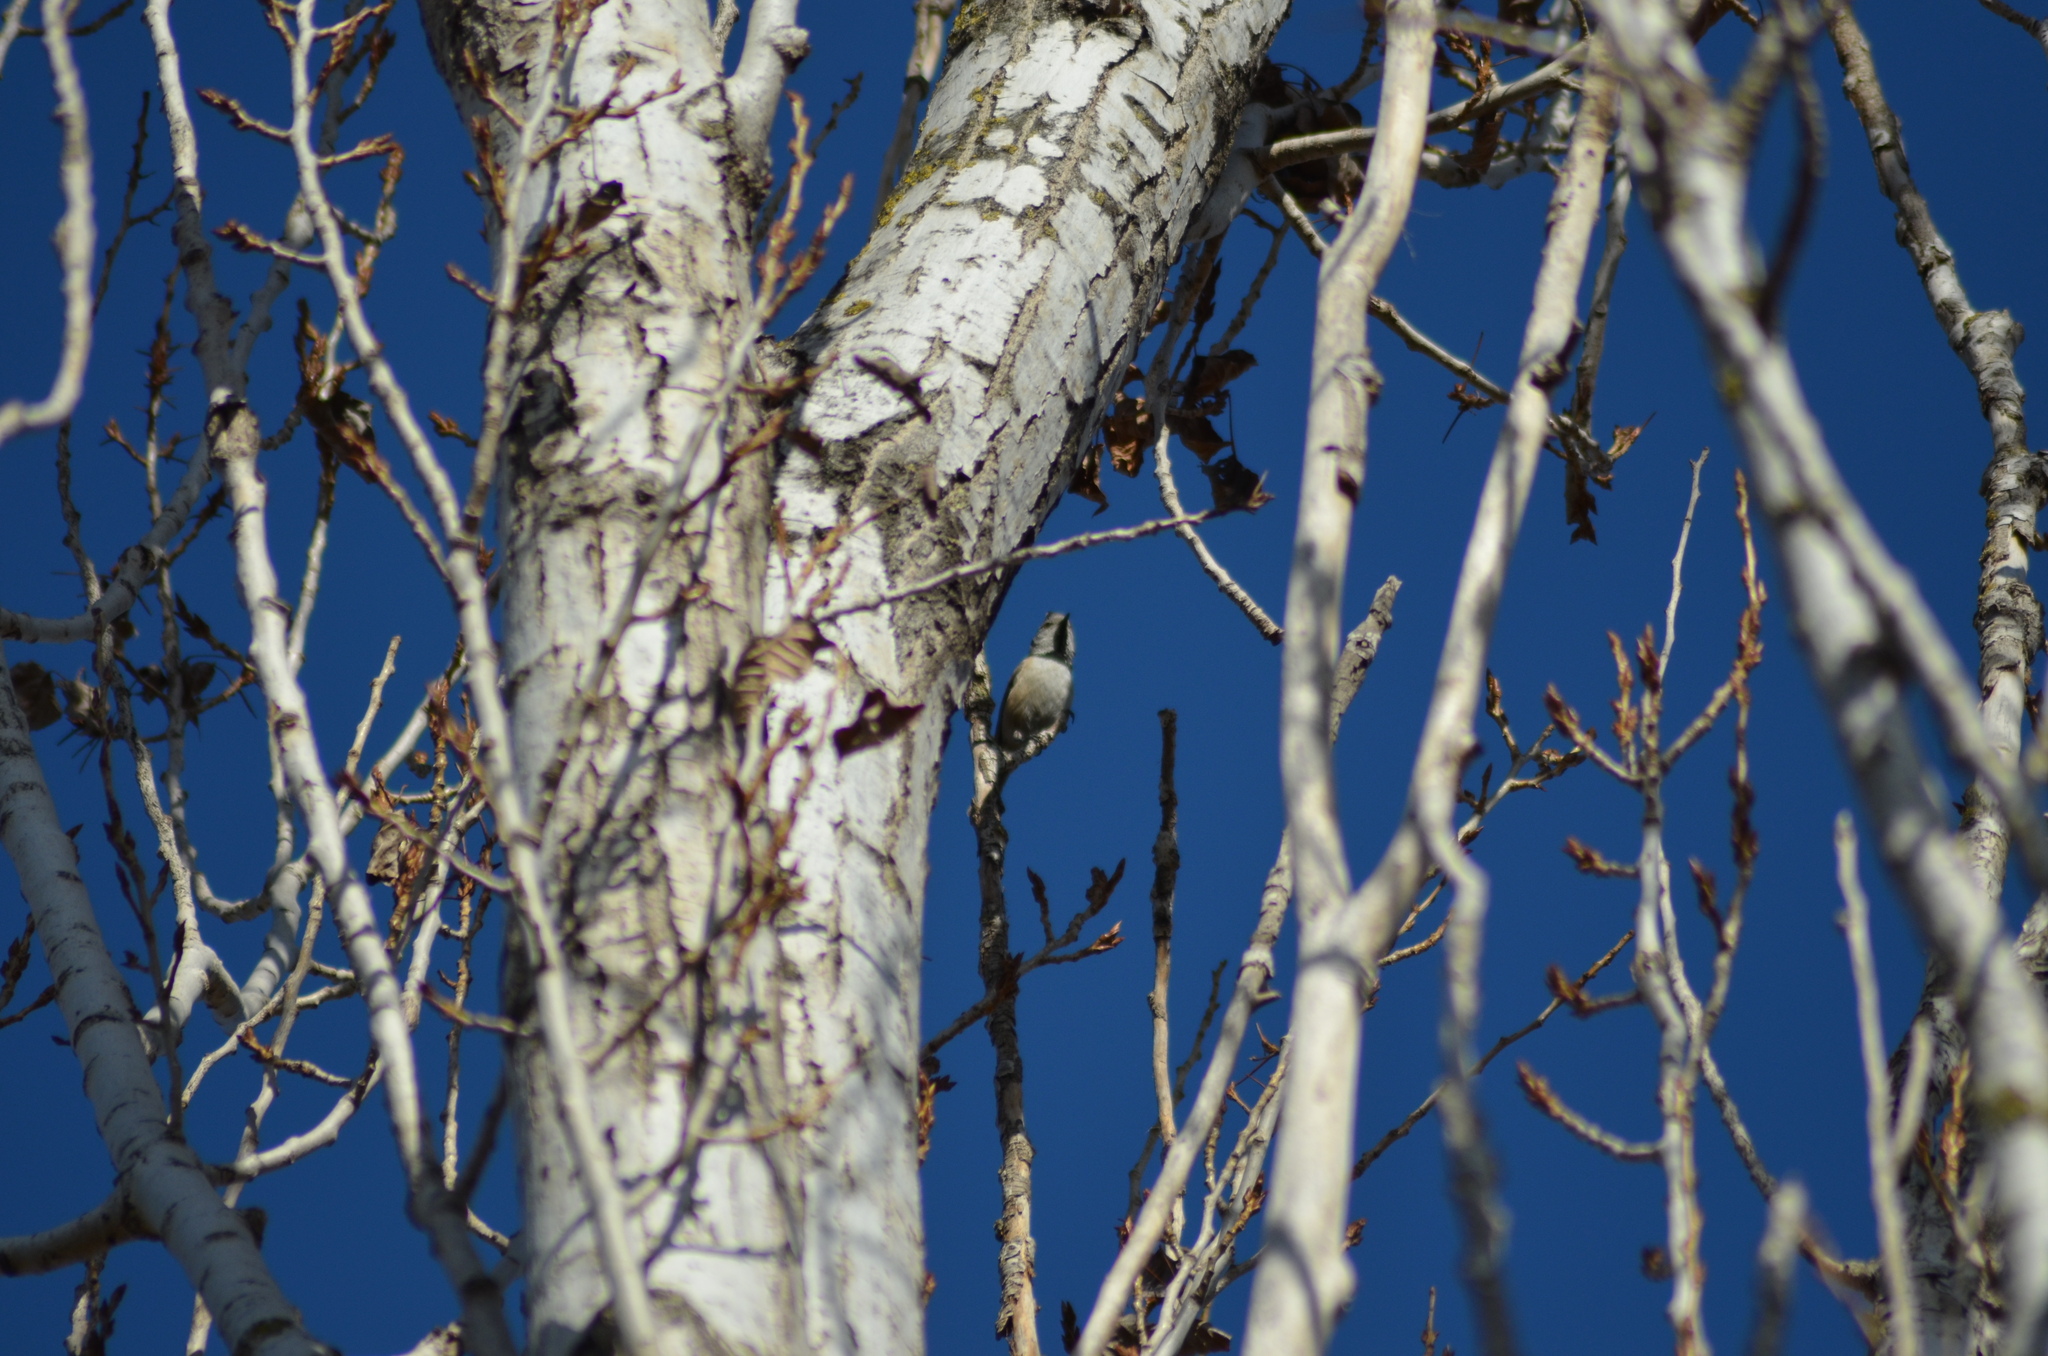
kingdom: Animalia
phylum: Chordata
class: Aves
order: Passeriformes
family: Paridae
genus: Lophophanes
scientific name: Lophophanes cristatus
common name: European crested tit
